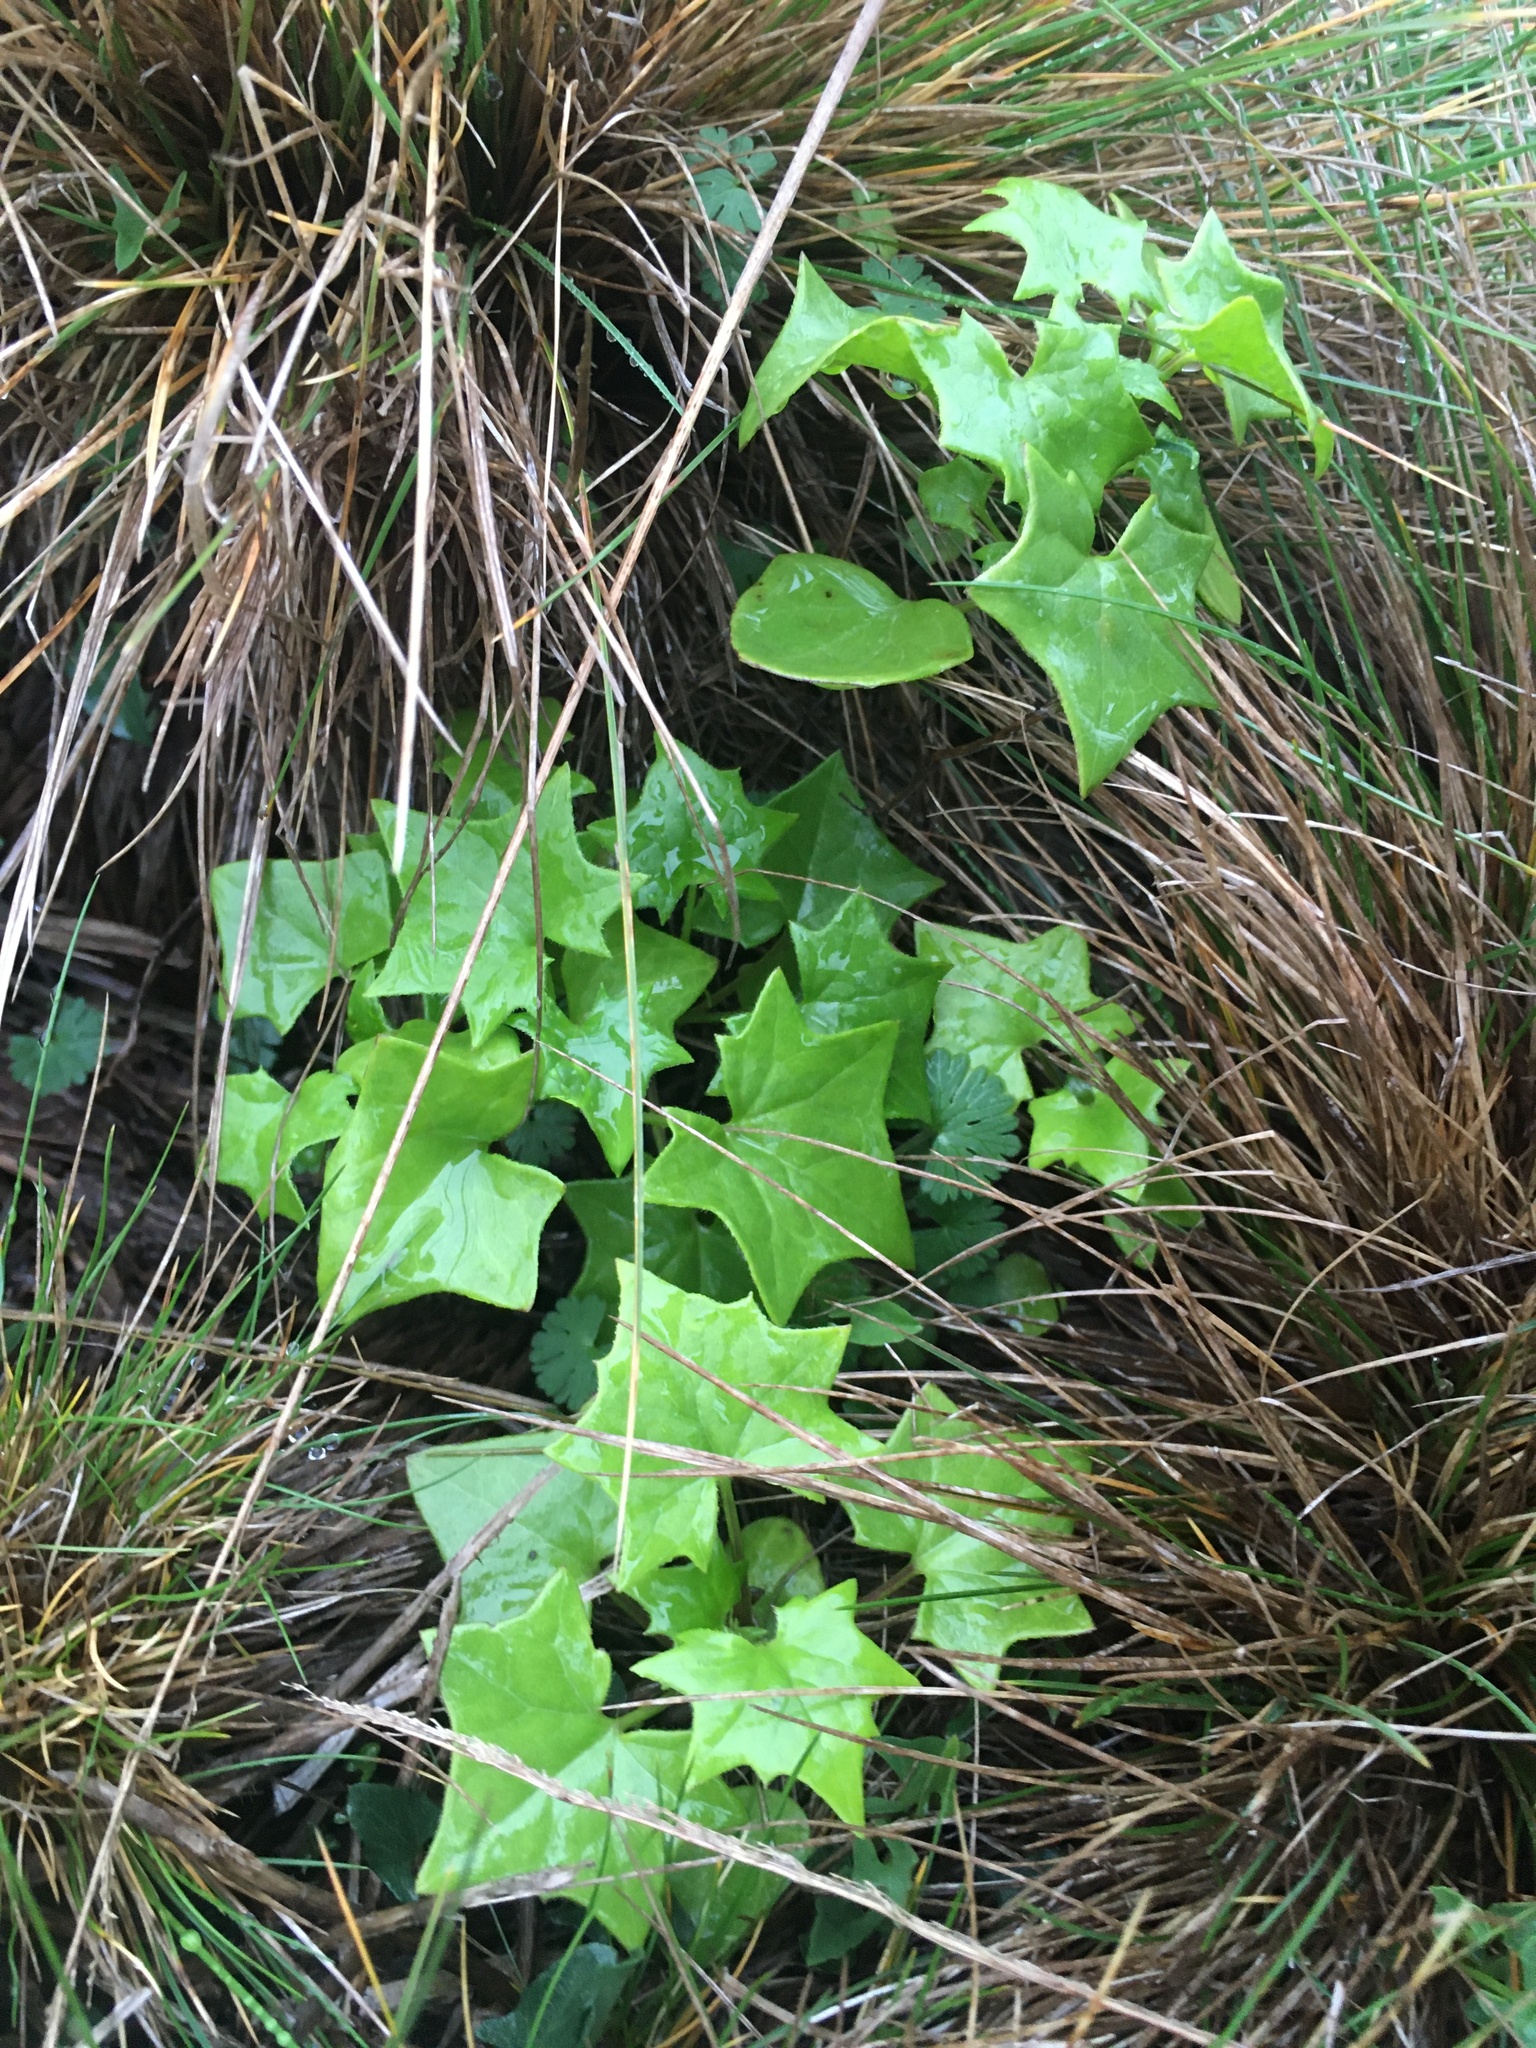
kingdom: Plantae
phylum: Tracheophyta
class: Magnoliopsida
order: Asterales
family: Asteraceae
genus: Delairea
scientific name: Delairea odorata
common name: Cape-ivy
